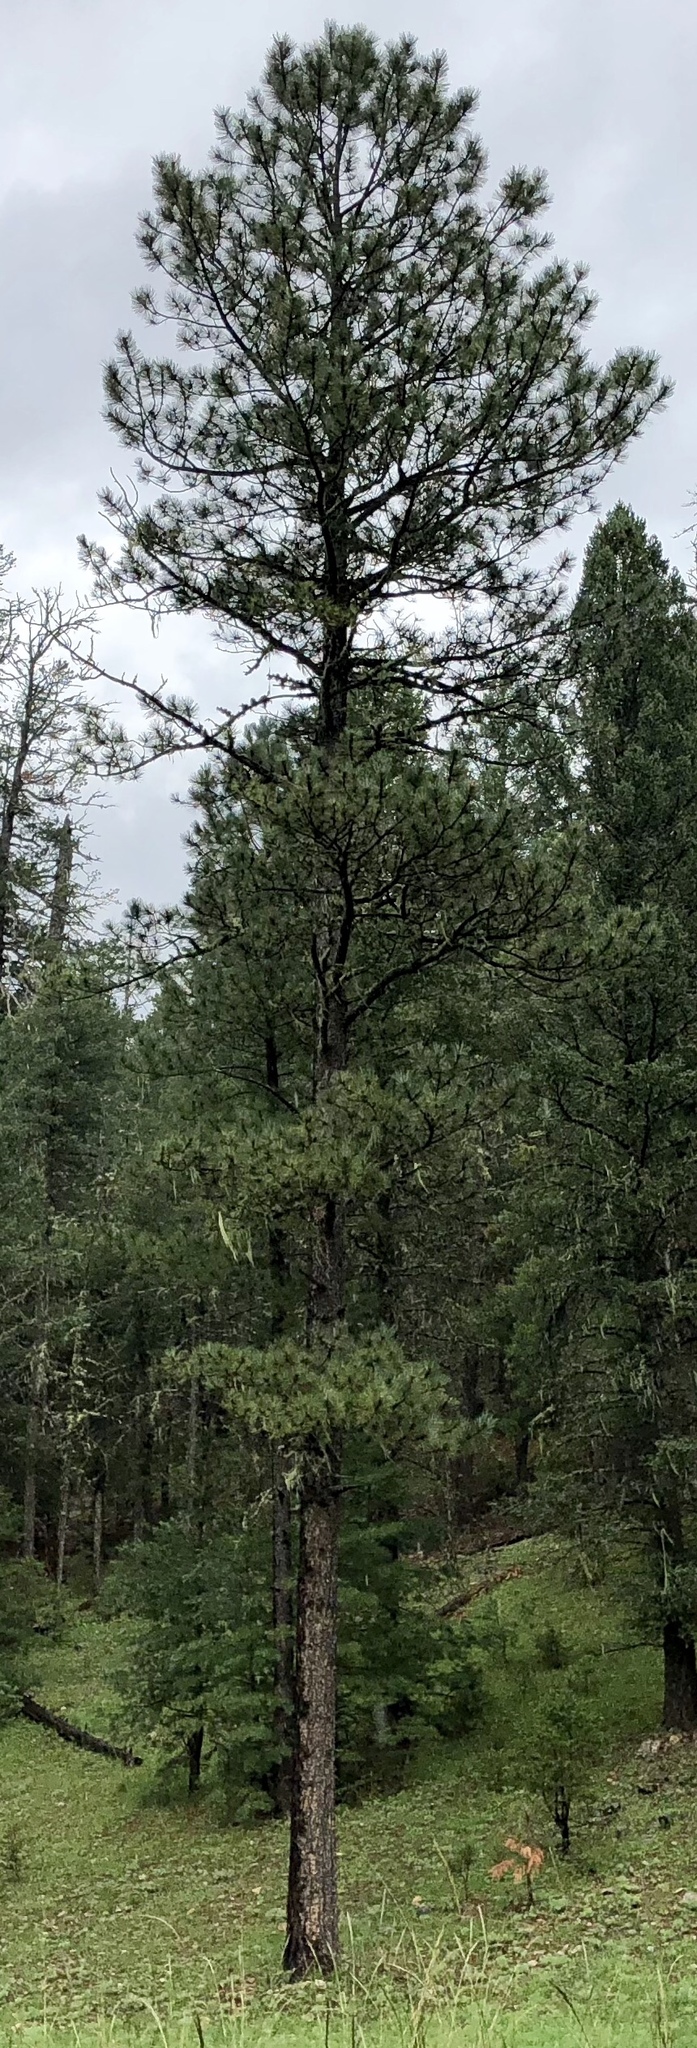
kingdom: Plantae
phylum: Tracheophyta
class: Pinopsida
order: Pinales
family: Pinaceae
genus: Pinus
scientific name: Pinus ponderosa
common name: Western yellow-pine
